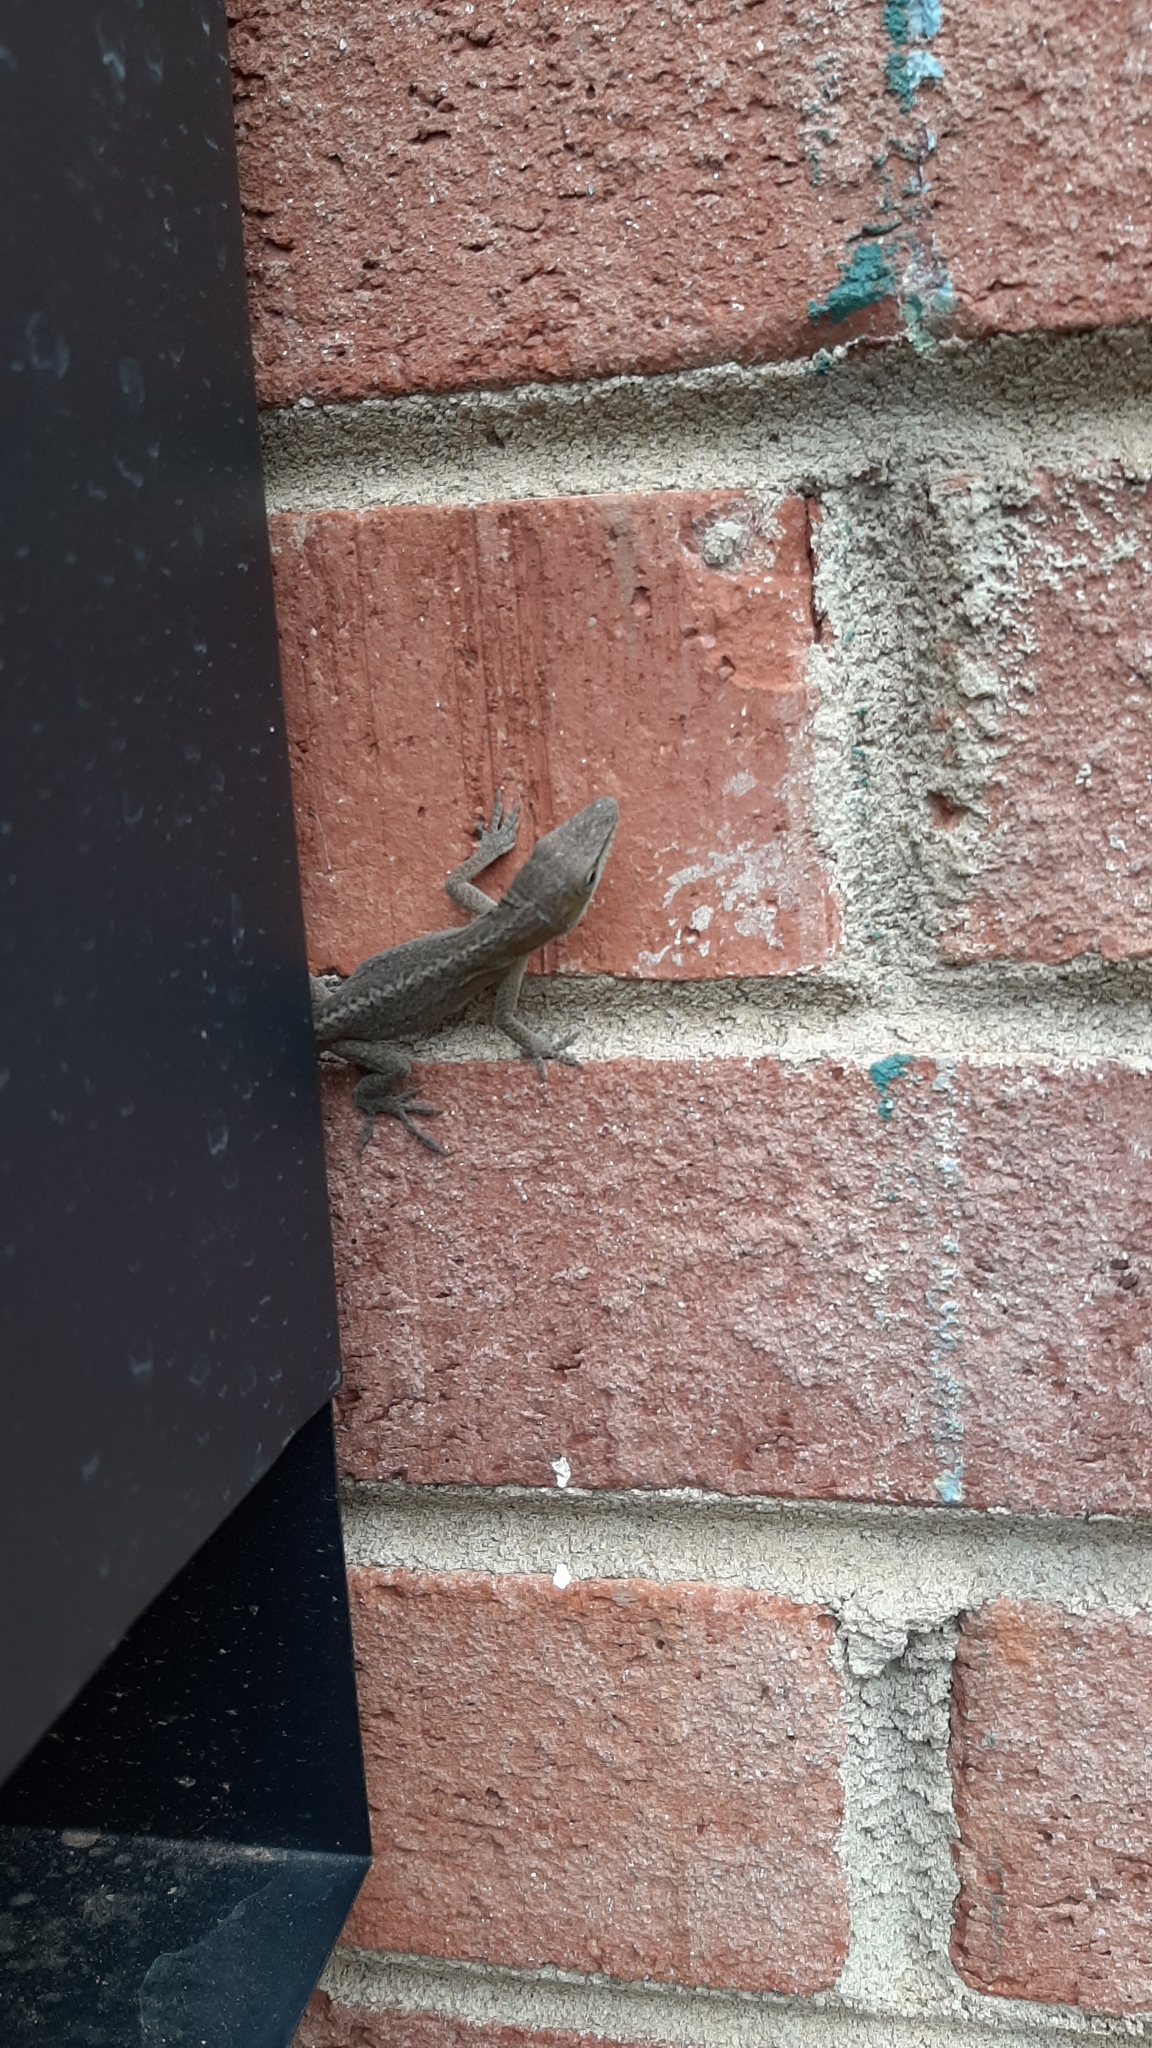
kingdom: Animalia
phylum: Chordata
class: Squamata
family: Dactyloidae
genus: Anolis
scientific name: Anolis carolinensis
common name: Green anole
